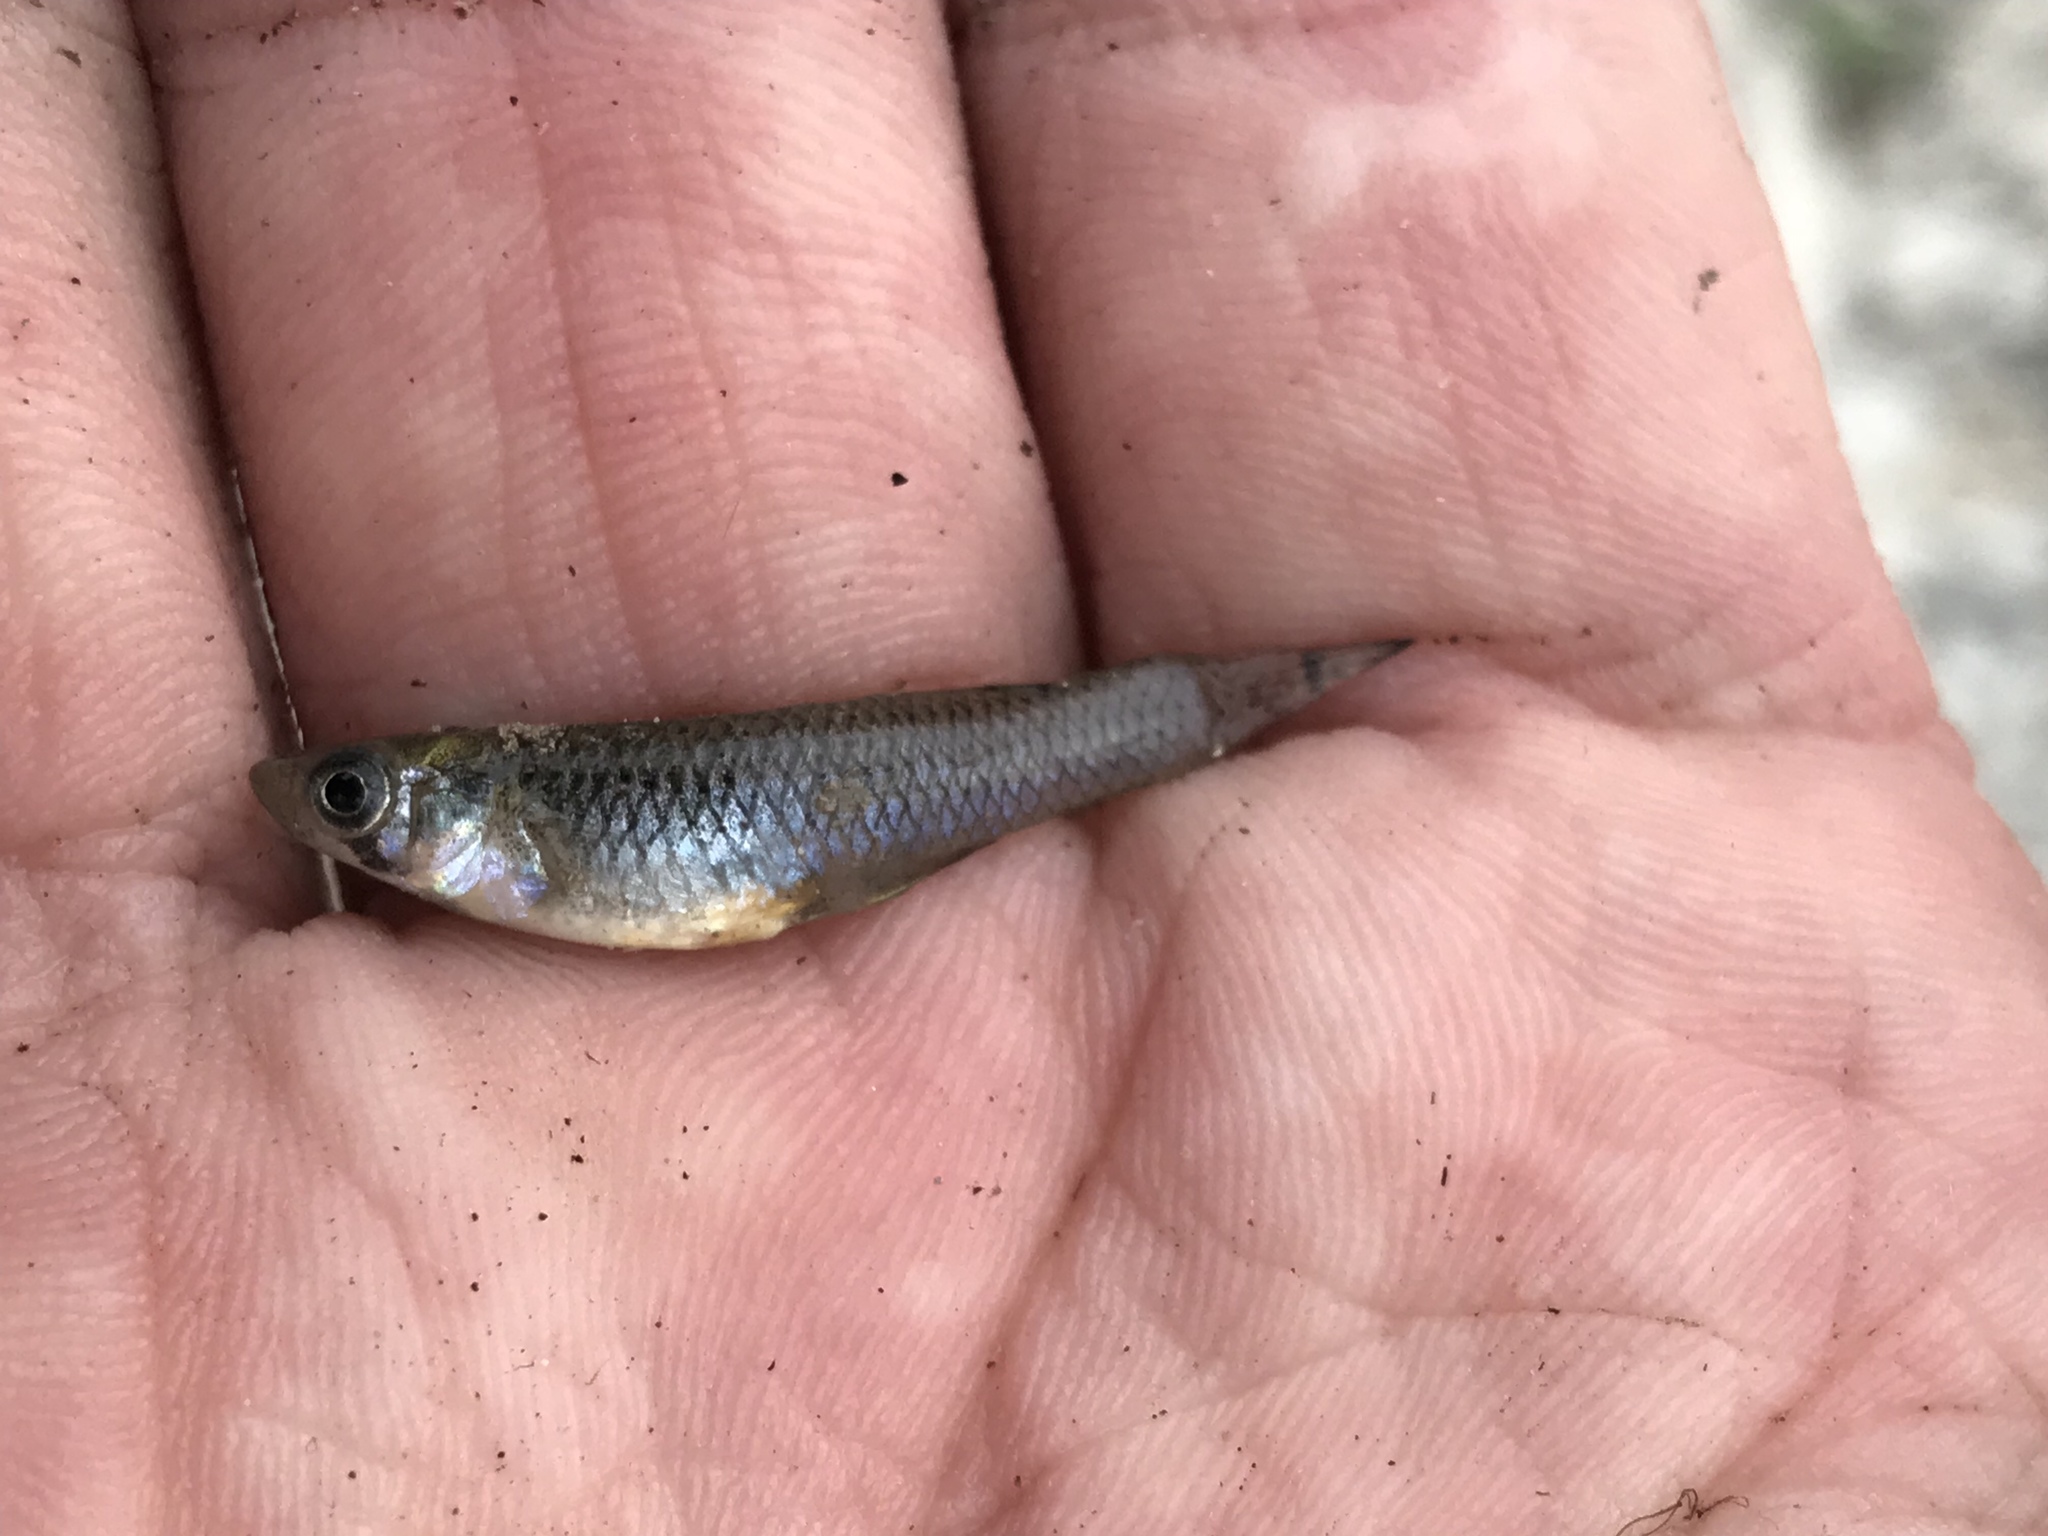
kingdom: Animalia
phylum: Chordata
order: Cyprinodontiformes
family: Poeciliidae
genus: Gambusia
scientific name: Gambusia affinis
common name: Mosquitofish
